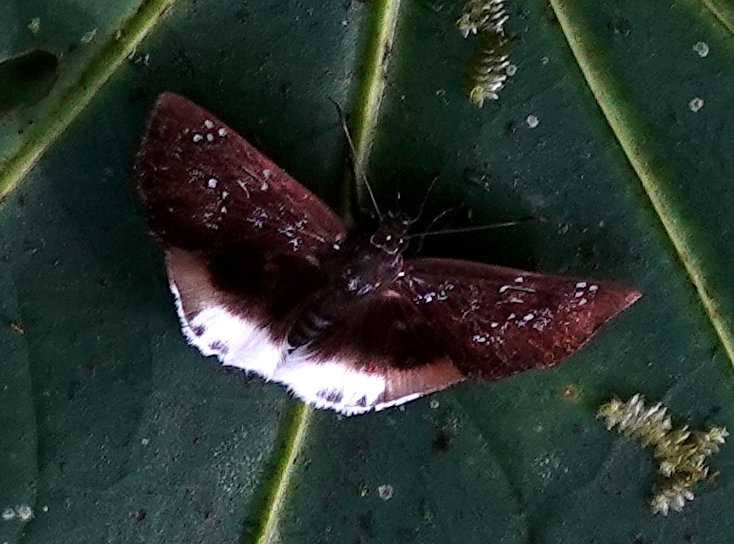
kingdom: Animalia
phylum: Arthropoda
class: Insecta
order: Lepidoptera
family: Hesperiidae
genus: Spioniades
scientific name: Spioniades abbreviata
